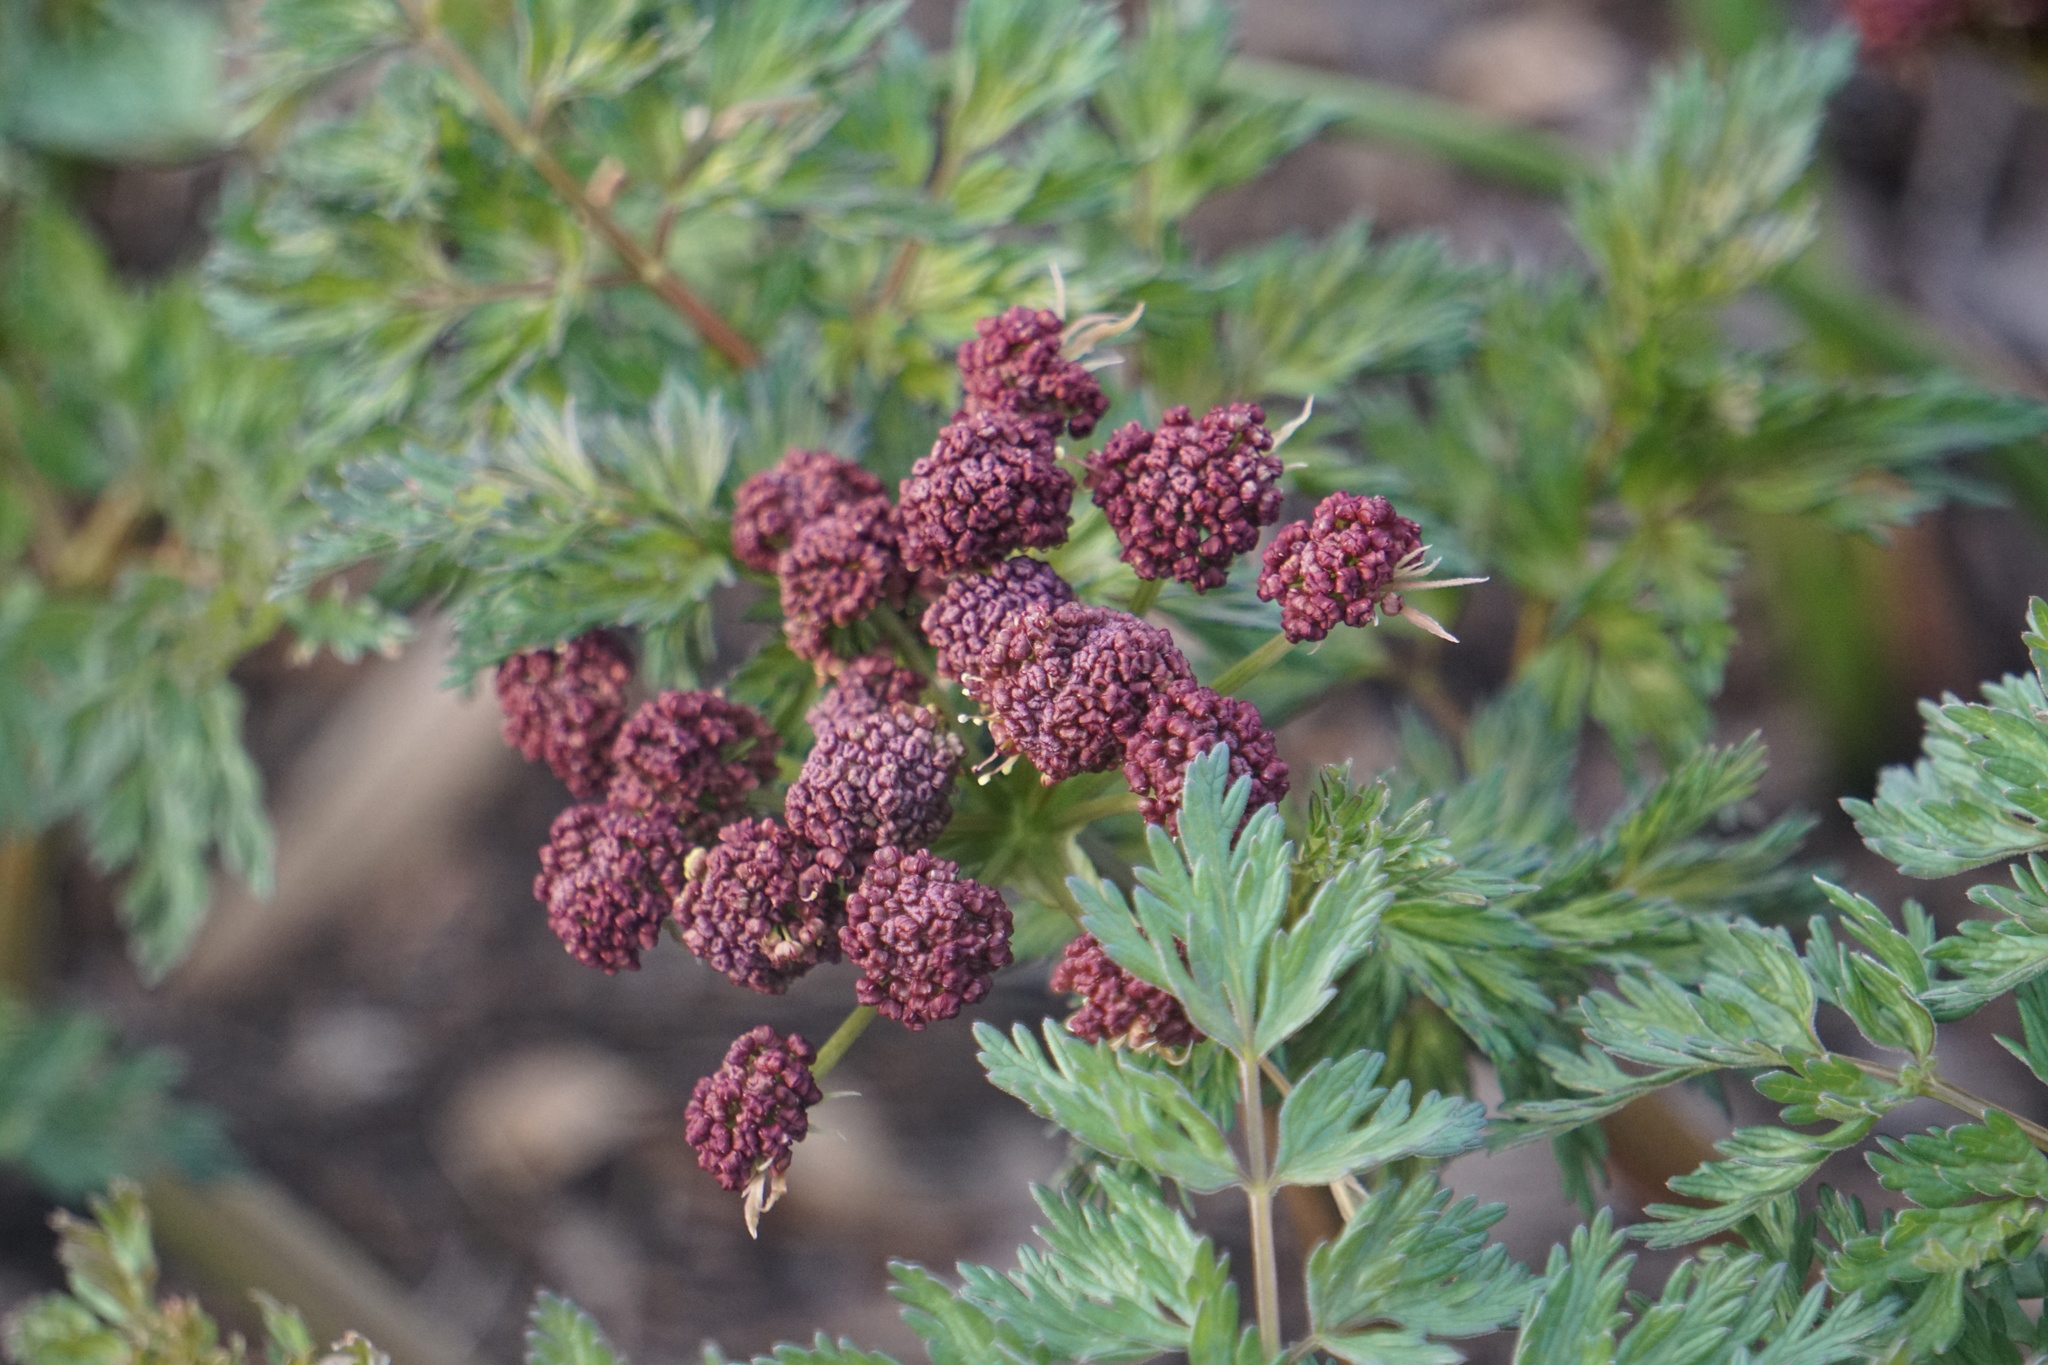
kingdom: Plantae
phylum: Tracheophyta
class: Magnoliopsida
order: Apiales
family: Apiaceae
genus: Lomatium
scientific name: Lomatium dissectum
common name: Lomatium
